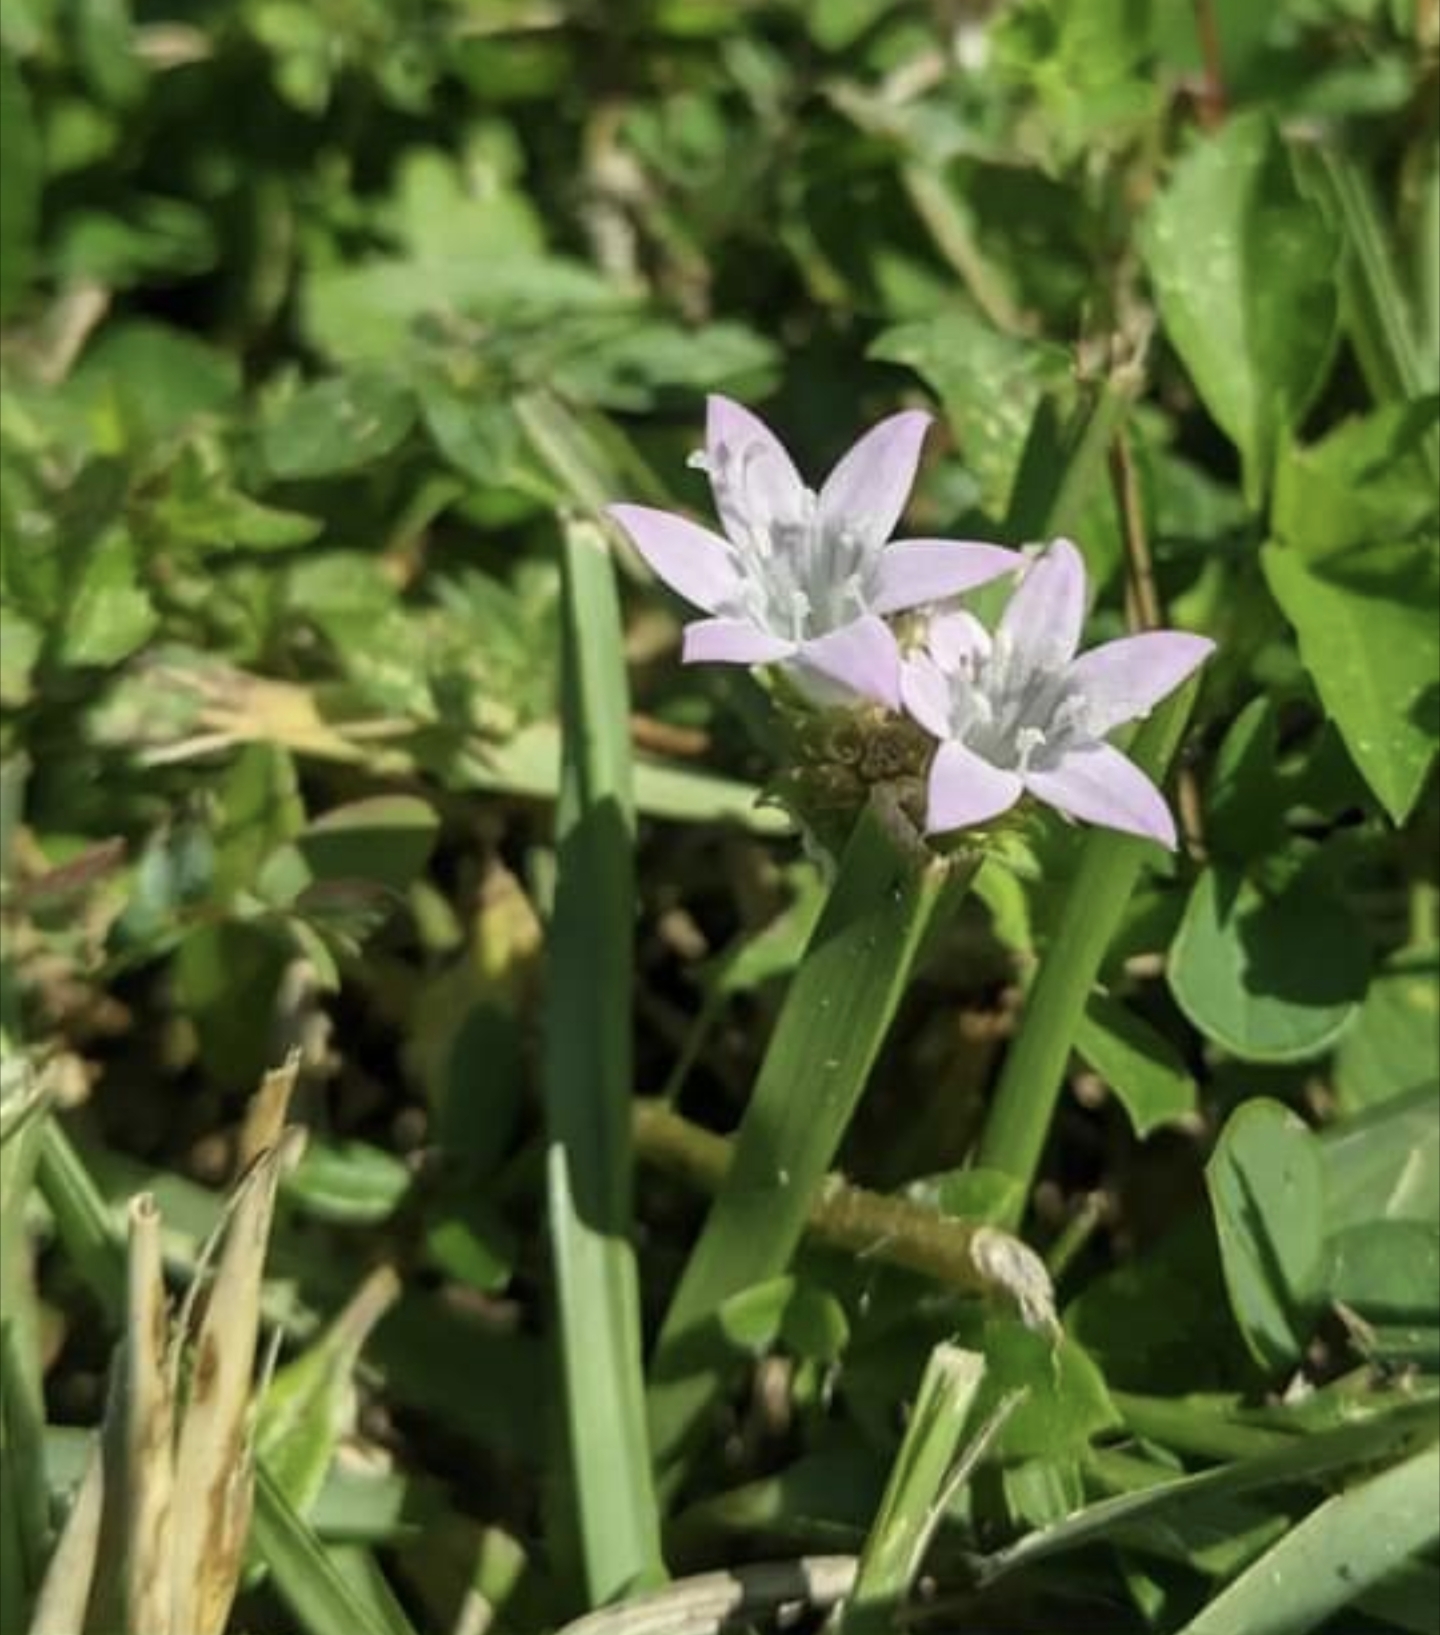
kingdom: Plantae
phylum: Tracheophyta
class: Magnoliopsida
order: Gentianales
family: Rubiaceae
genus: Richardia
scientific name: Richardia grandiflora
